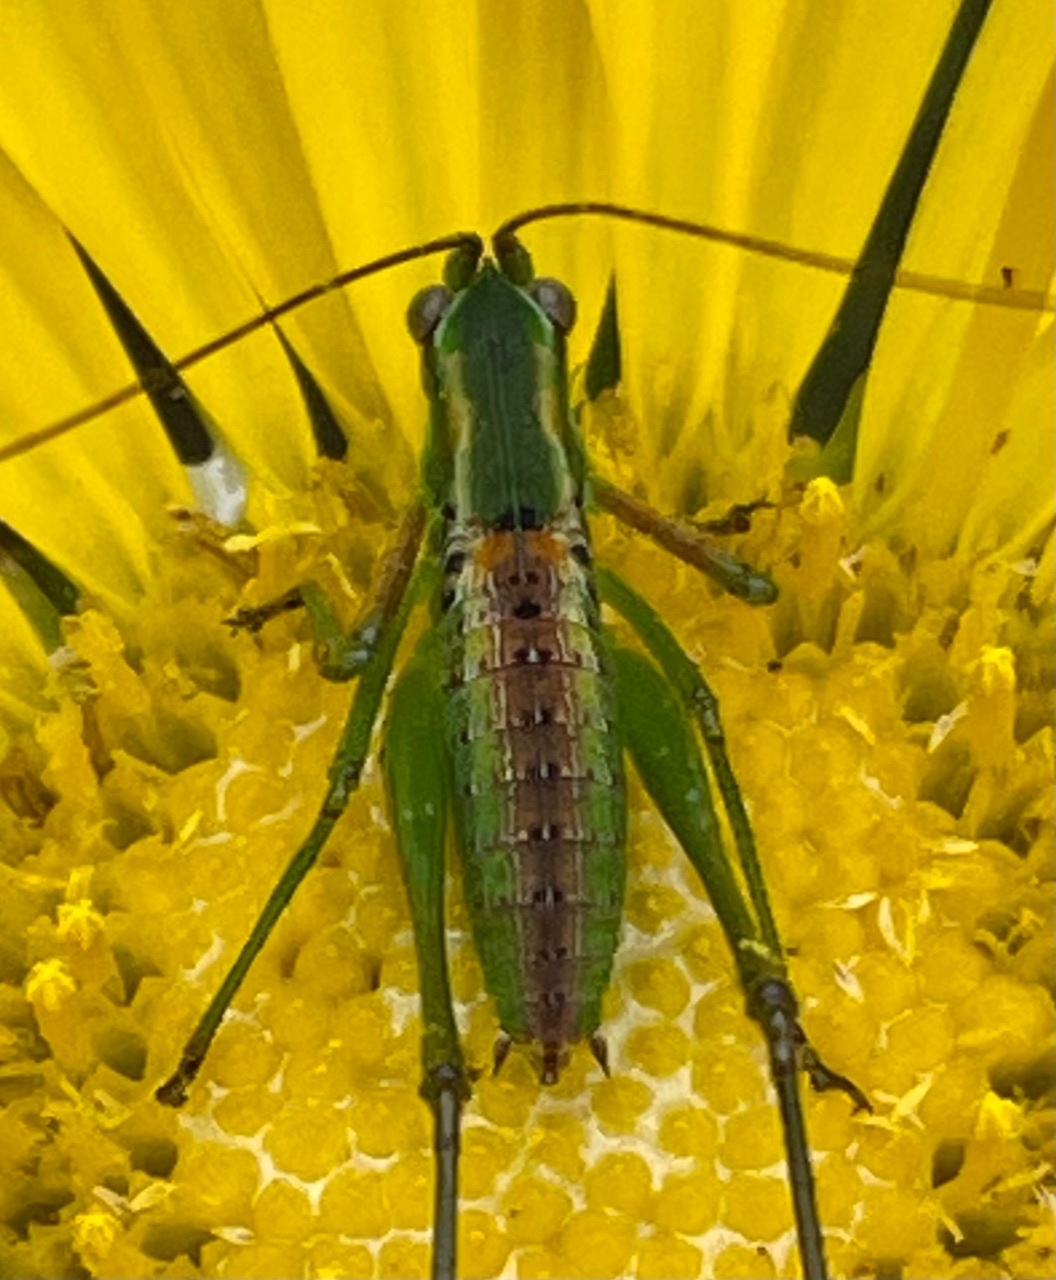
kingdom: Animalia
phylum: Arthropoda
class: Insecta
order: Orthoptera
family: Tettigoniidae
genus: Scudderia
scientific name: Scudderia
